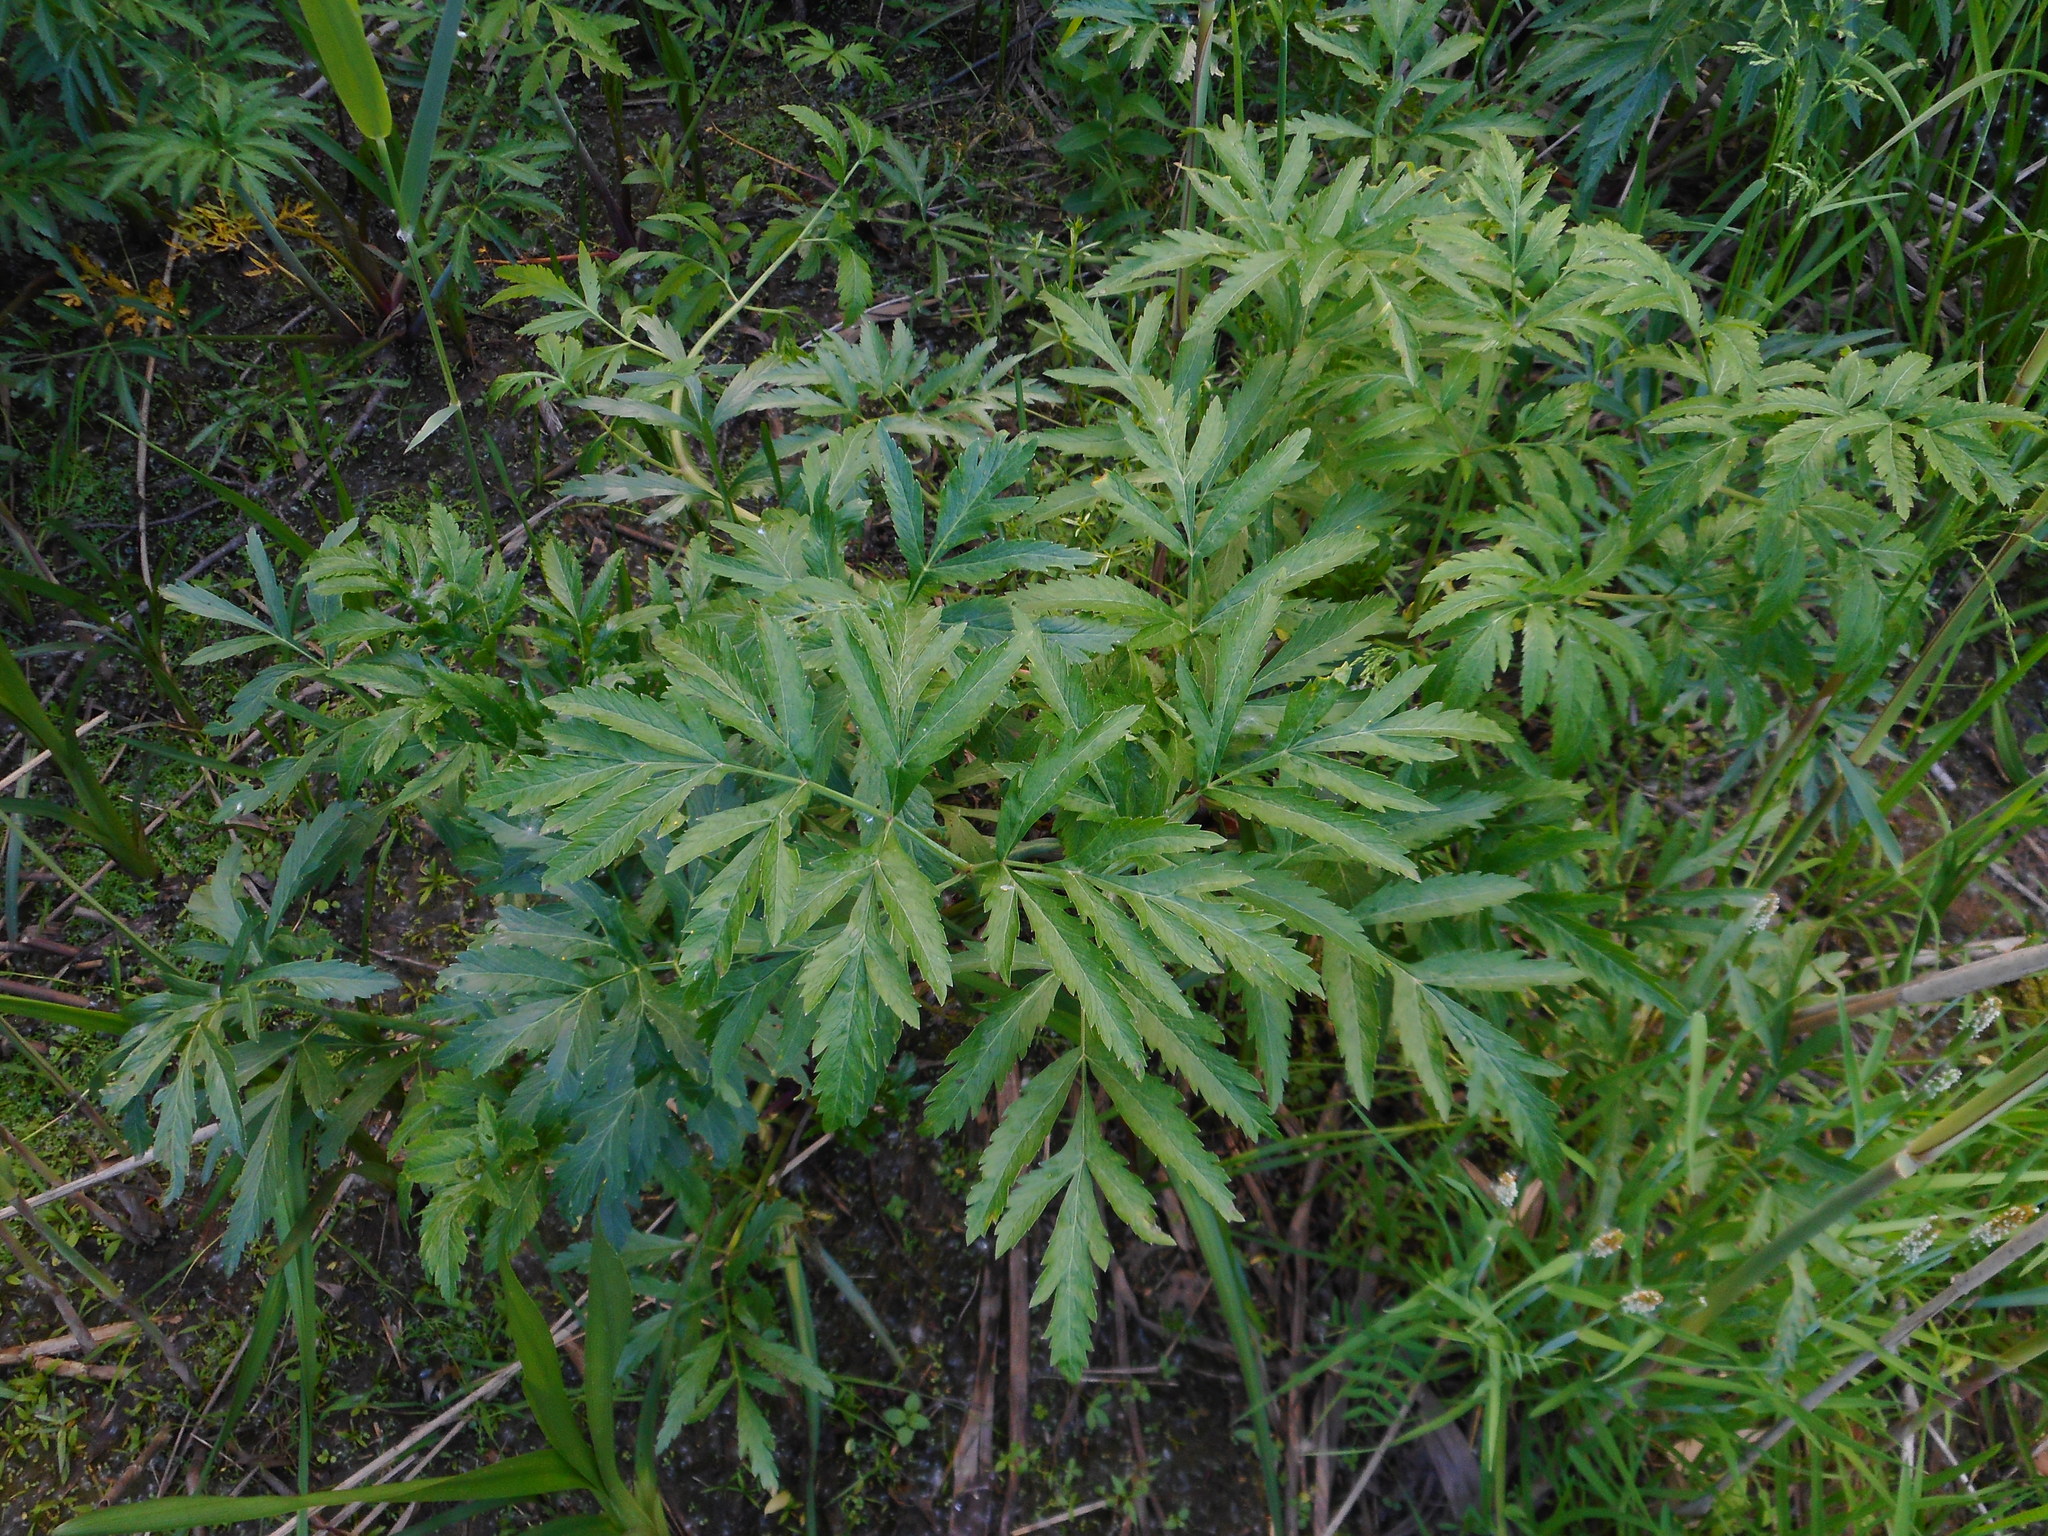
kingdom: Plantae
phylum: Tracheophyta
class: Magnoliopsida
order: Apiales
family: Apiaceae
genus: Cicuta
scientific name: Cicuta virosa
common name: Cowbane
